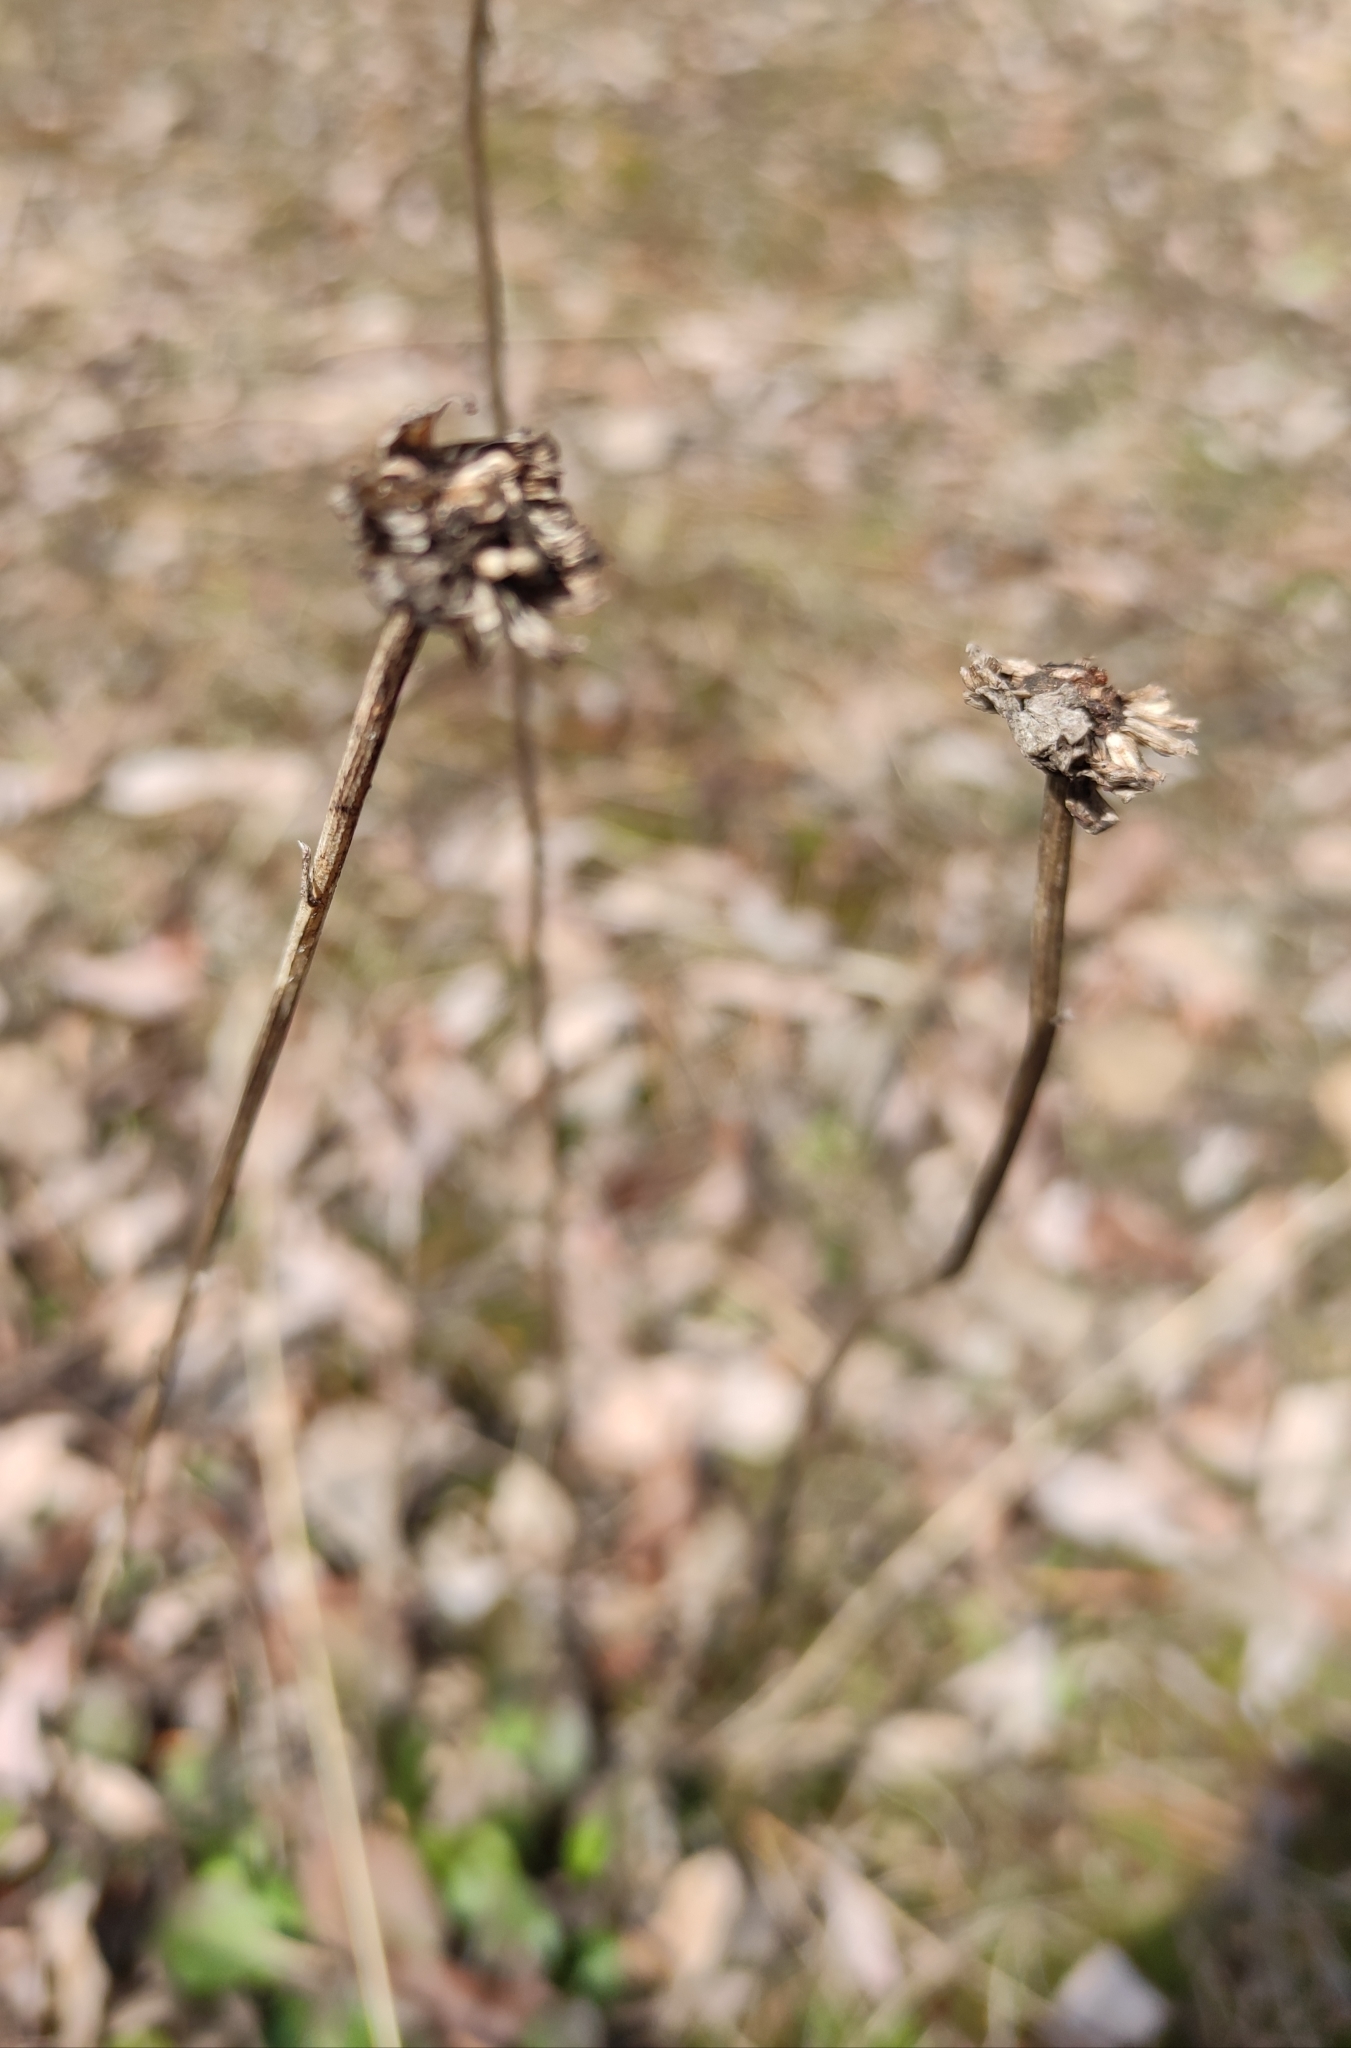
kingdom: Plantae
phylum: Tracheophyta
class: Magnoliopsida
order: Asterales
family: Asteraceae
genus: Leucanthemum
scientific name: Leucanthemum ircutianum
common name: Daisy
